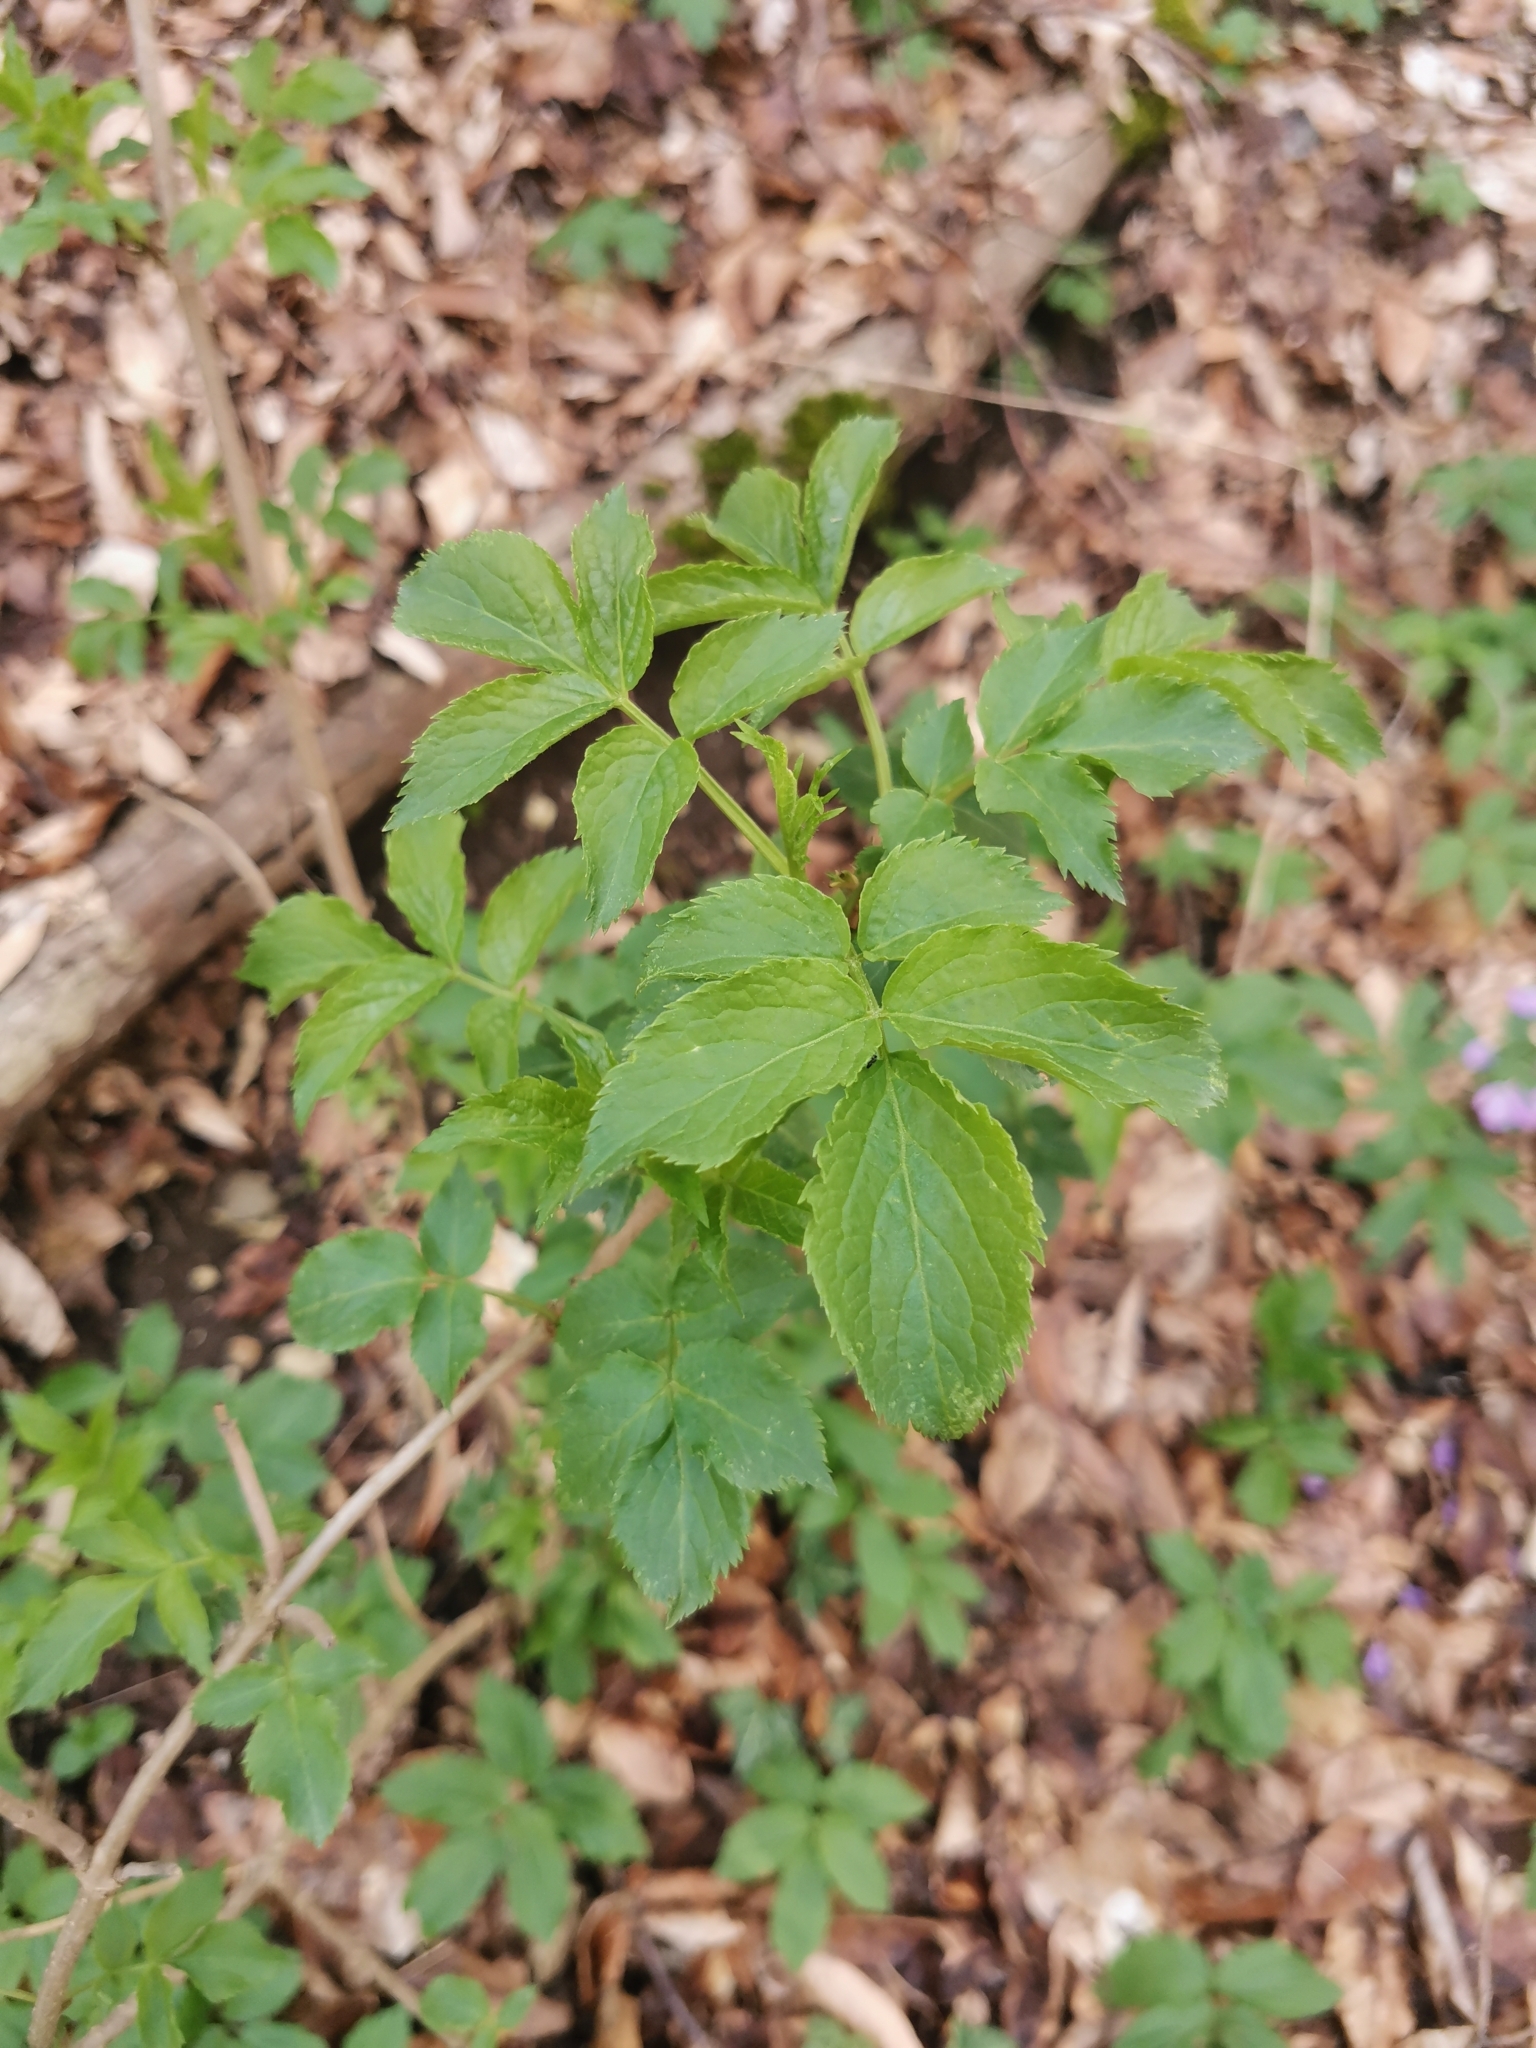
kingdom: Plantae
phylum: Tracheophyta
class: Magnoliopsida
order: Dipsacales
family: Viburnaceae
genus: Sambucus
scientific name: Sambucus nigra
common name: Elder
